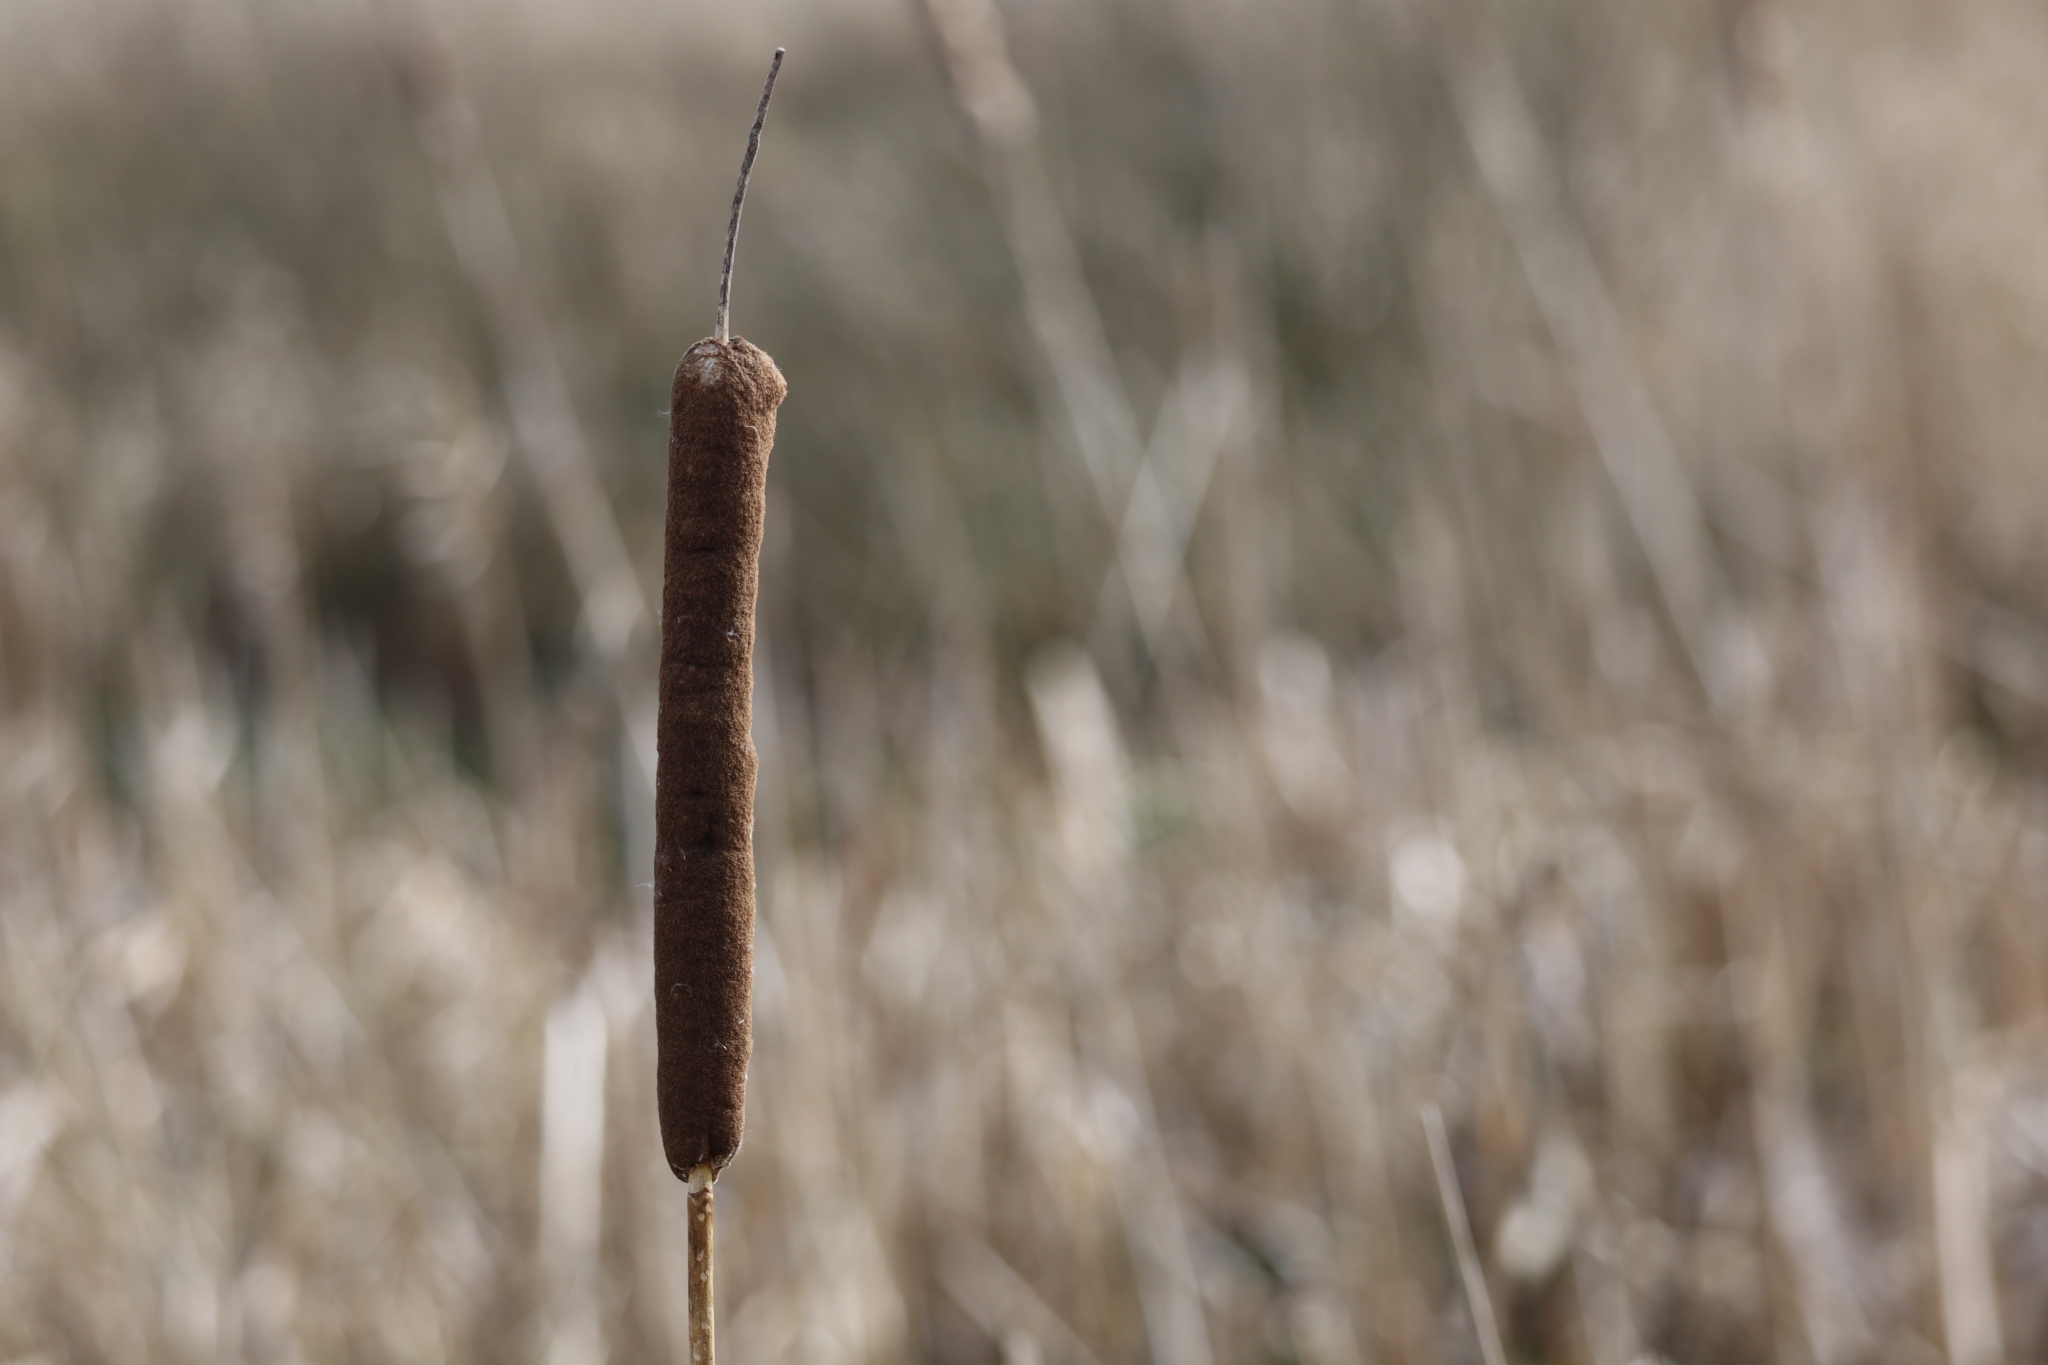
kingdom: Plantae
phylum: Tracheophyta
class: Liliopsida
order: Poales
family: Typhaceae
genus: Typha
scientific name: Typha latifolia
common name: Broadleaf cattail
